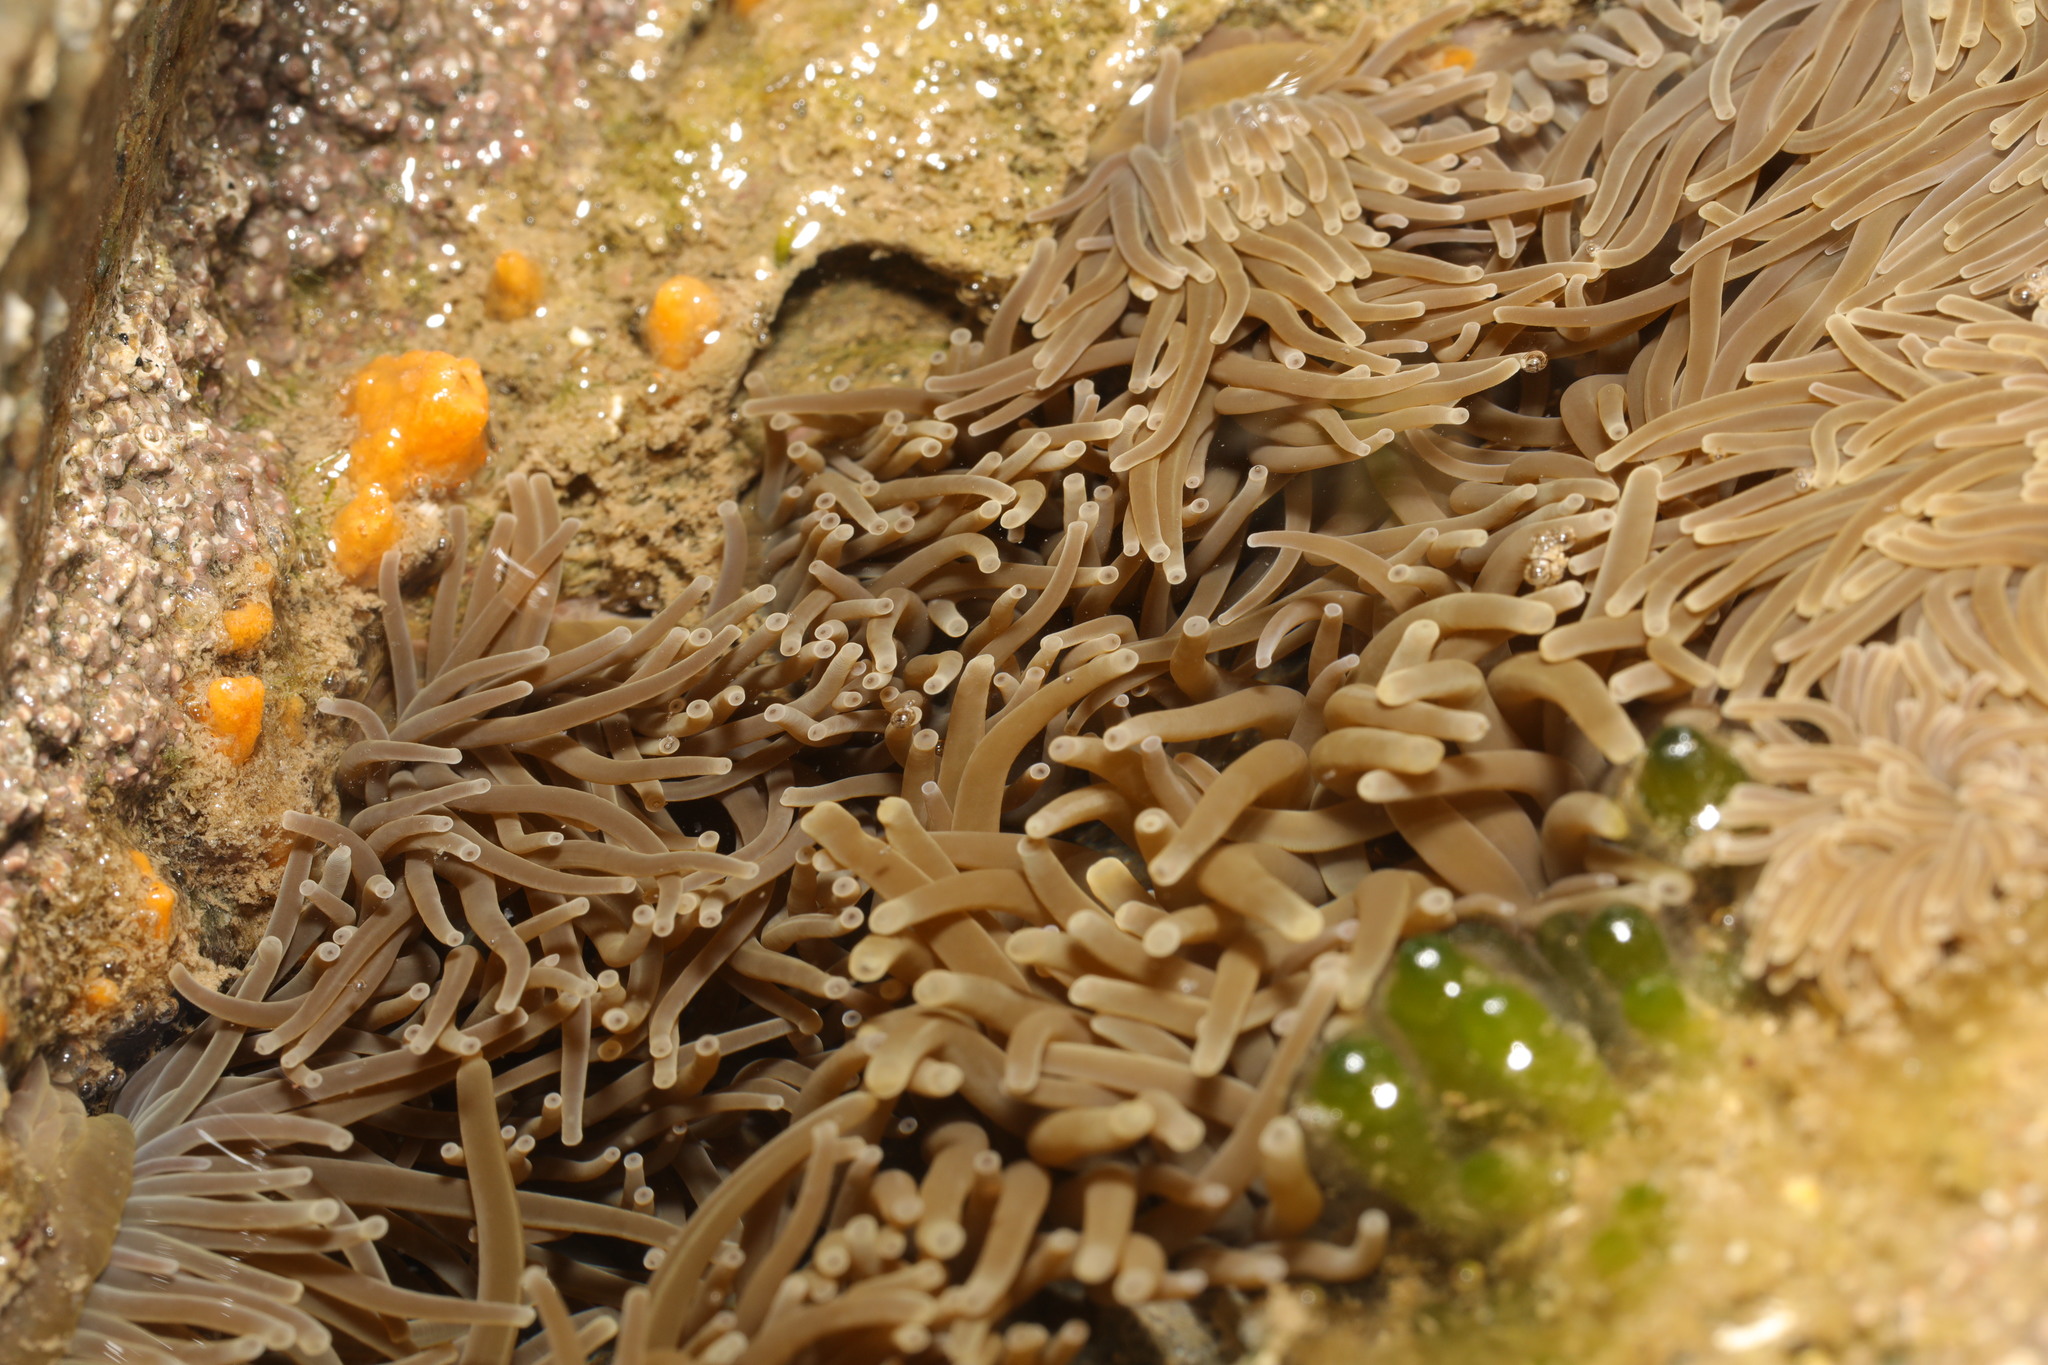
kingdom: Animalia
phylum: Cnidaria
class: Anthozoa
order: Actiniaria
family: Actiniidae
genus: Anemonia
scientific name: Anemonia viridis
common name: Snakelocks anemone
